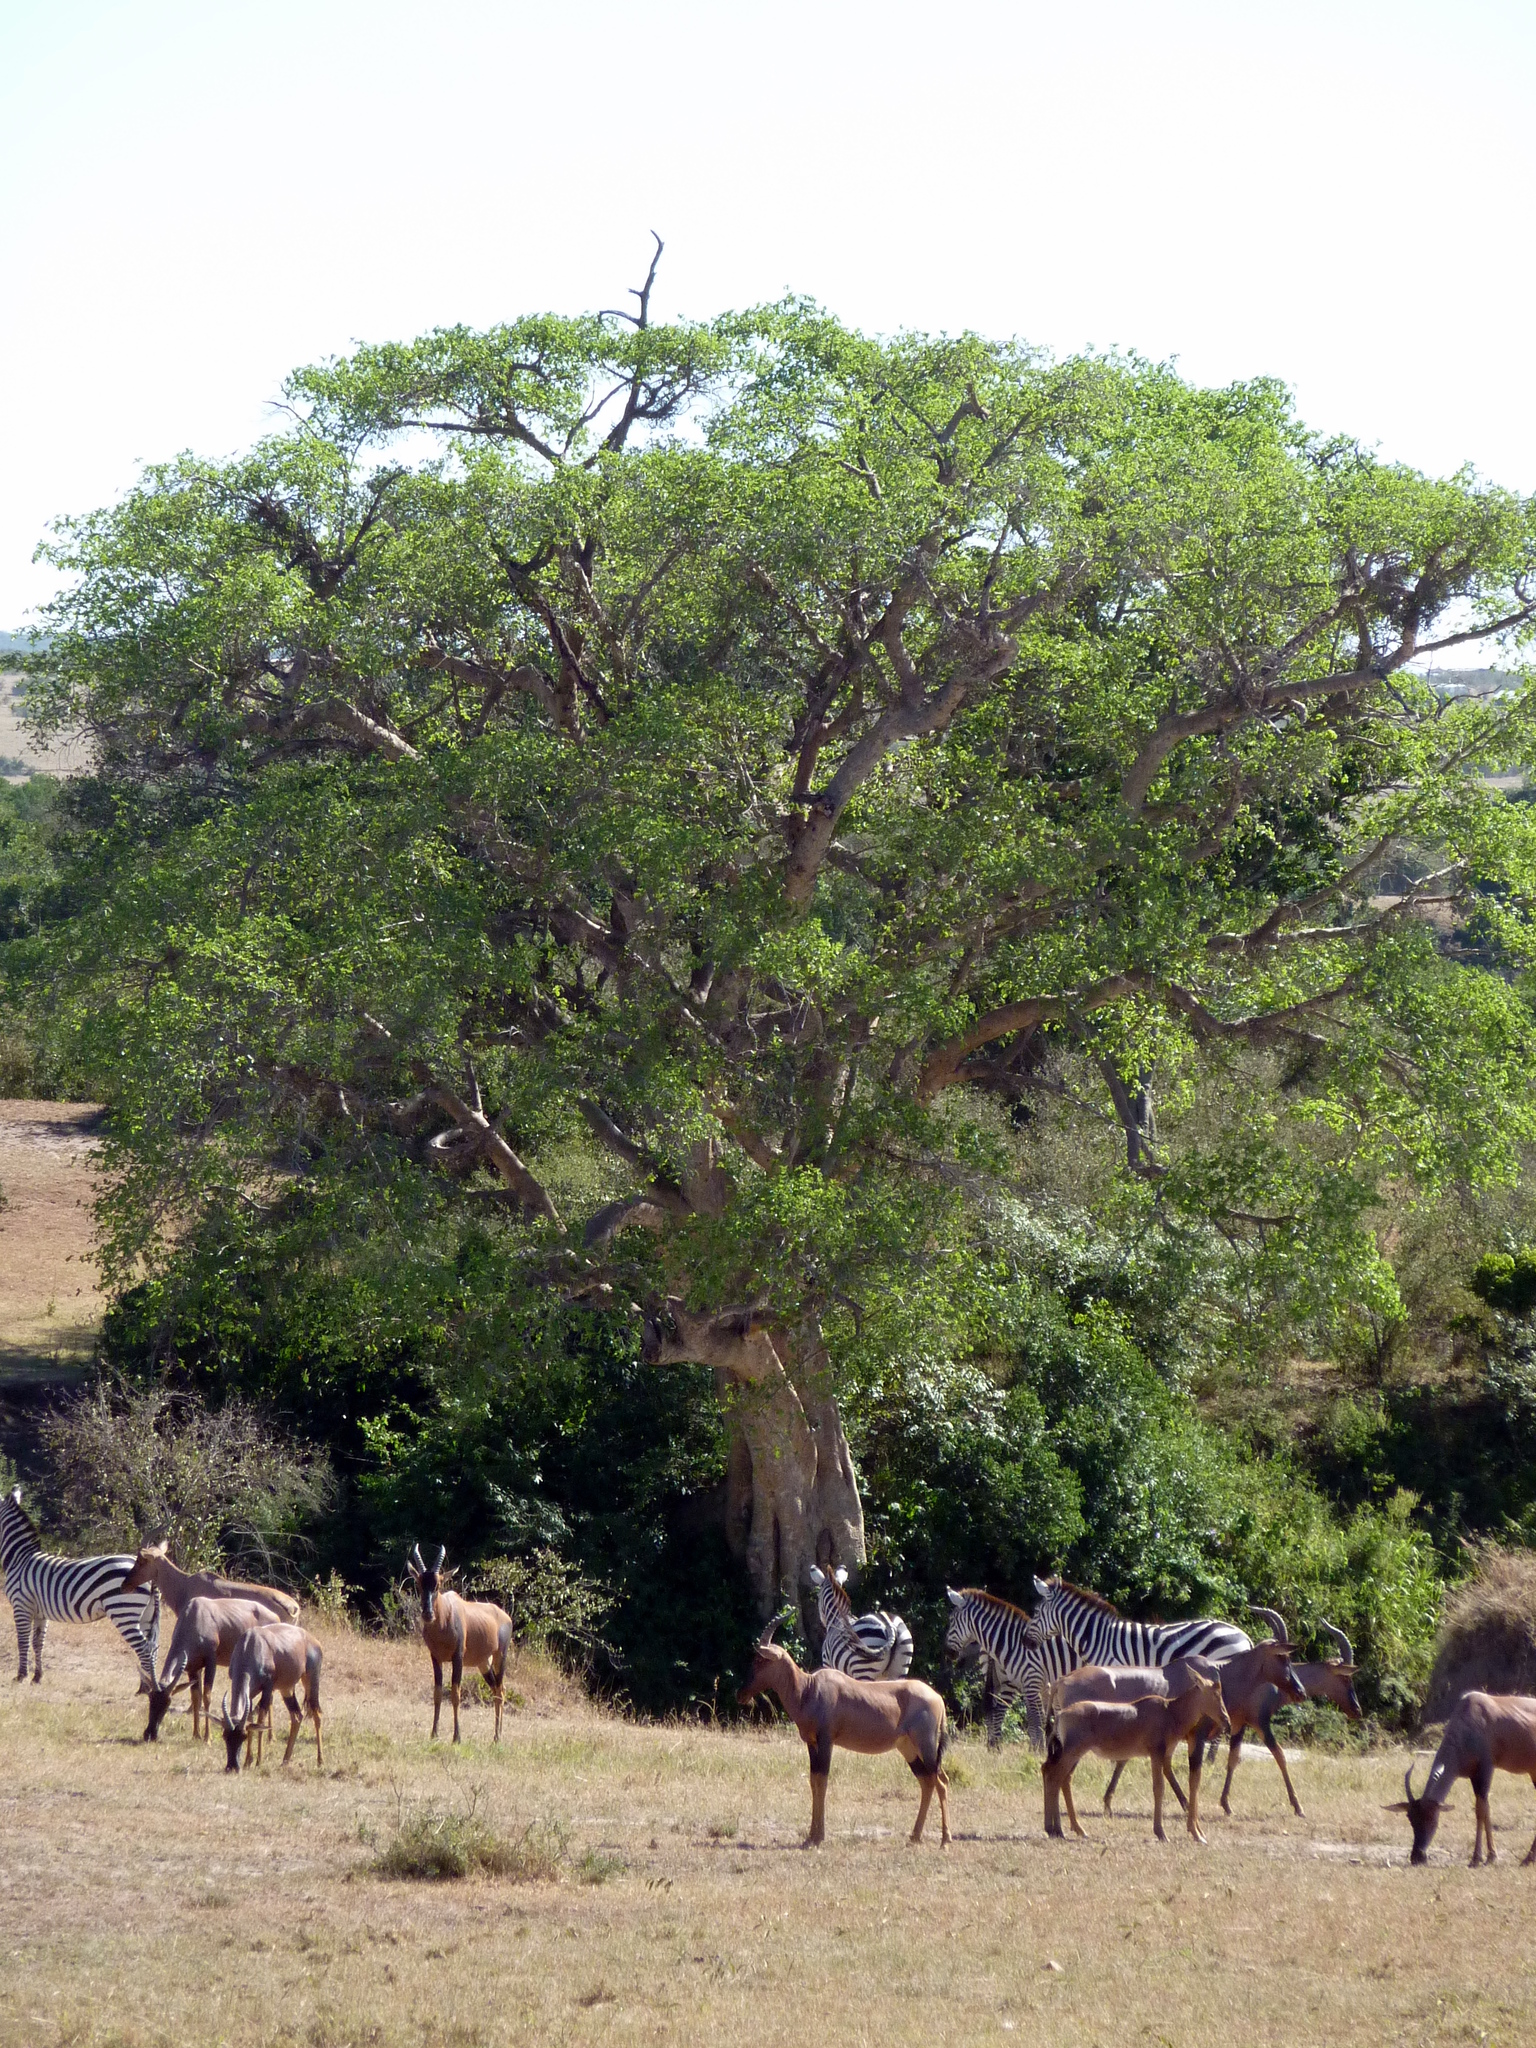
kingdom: Animalia
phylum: Chordata
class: Mammalia
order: Artiodactyla
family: Bovidae
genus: Damaliscus
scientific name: Damaliscus korrigum
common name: Topi
